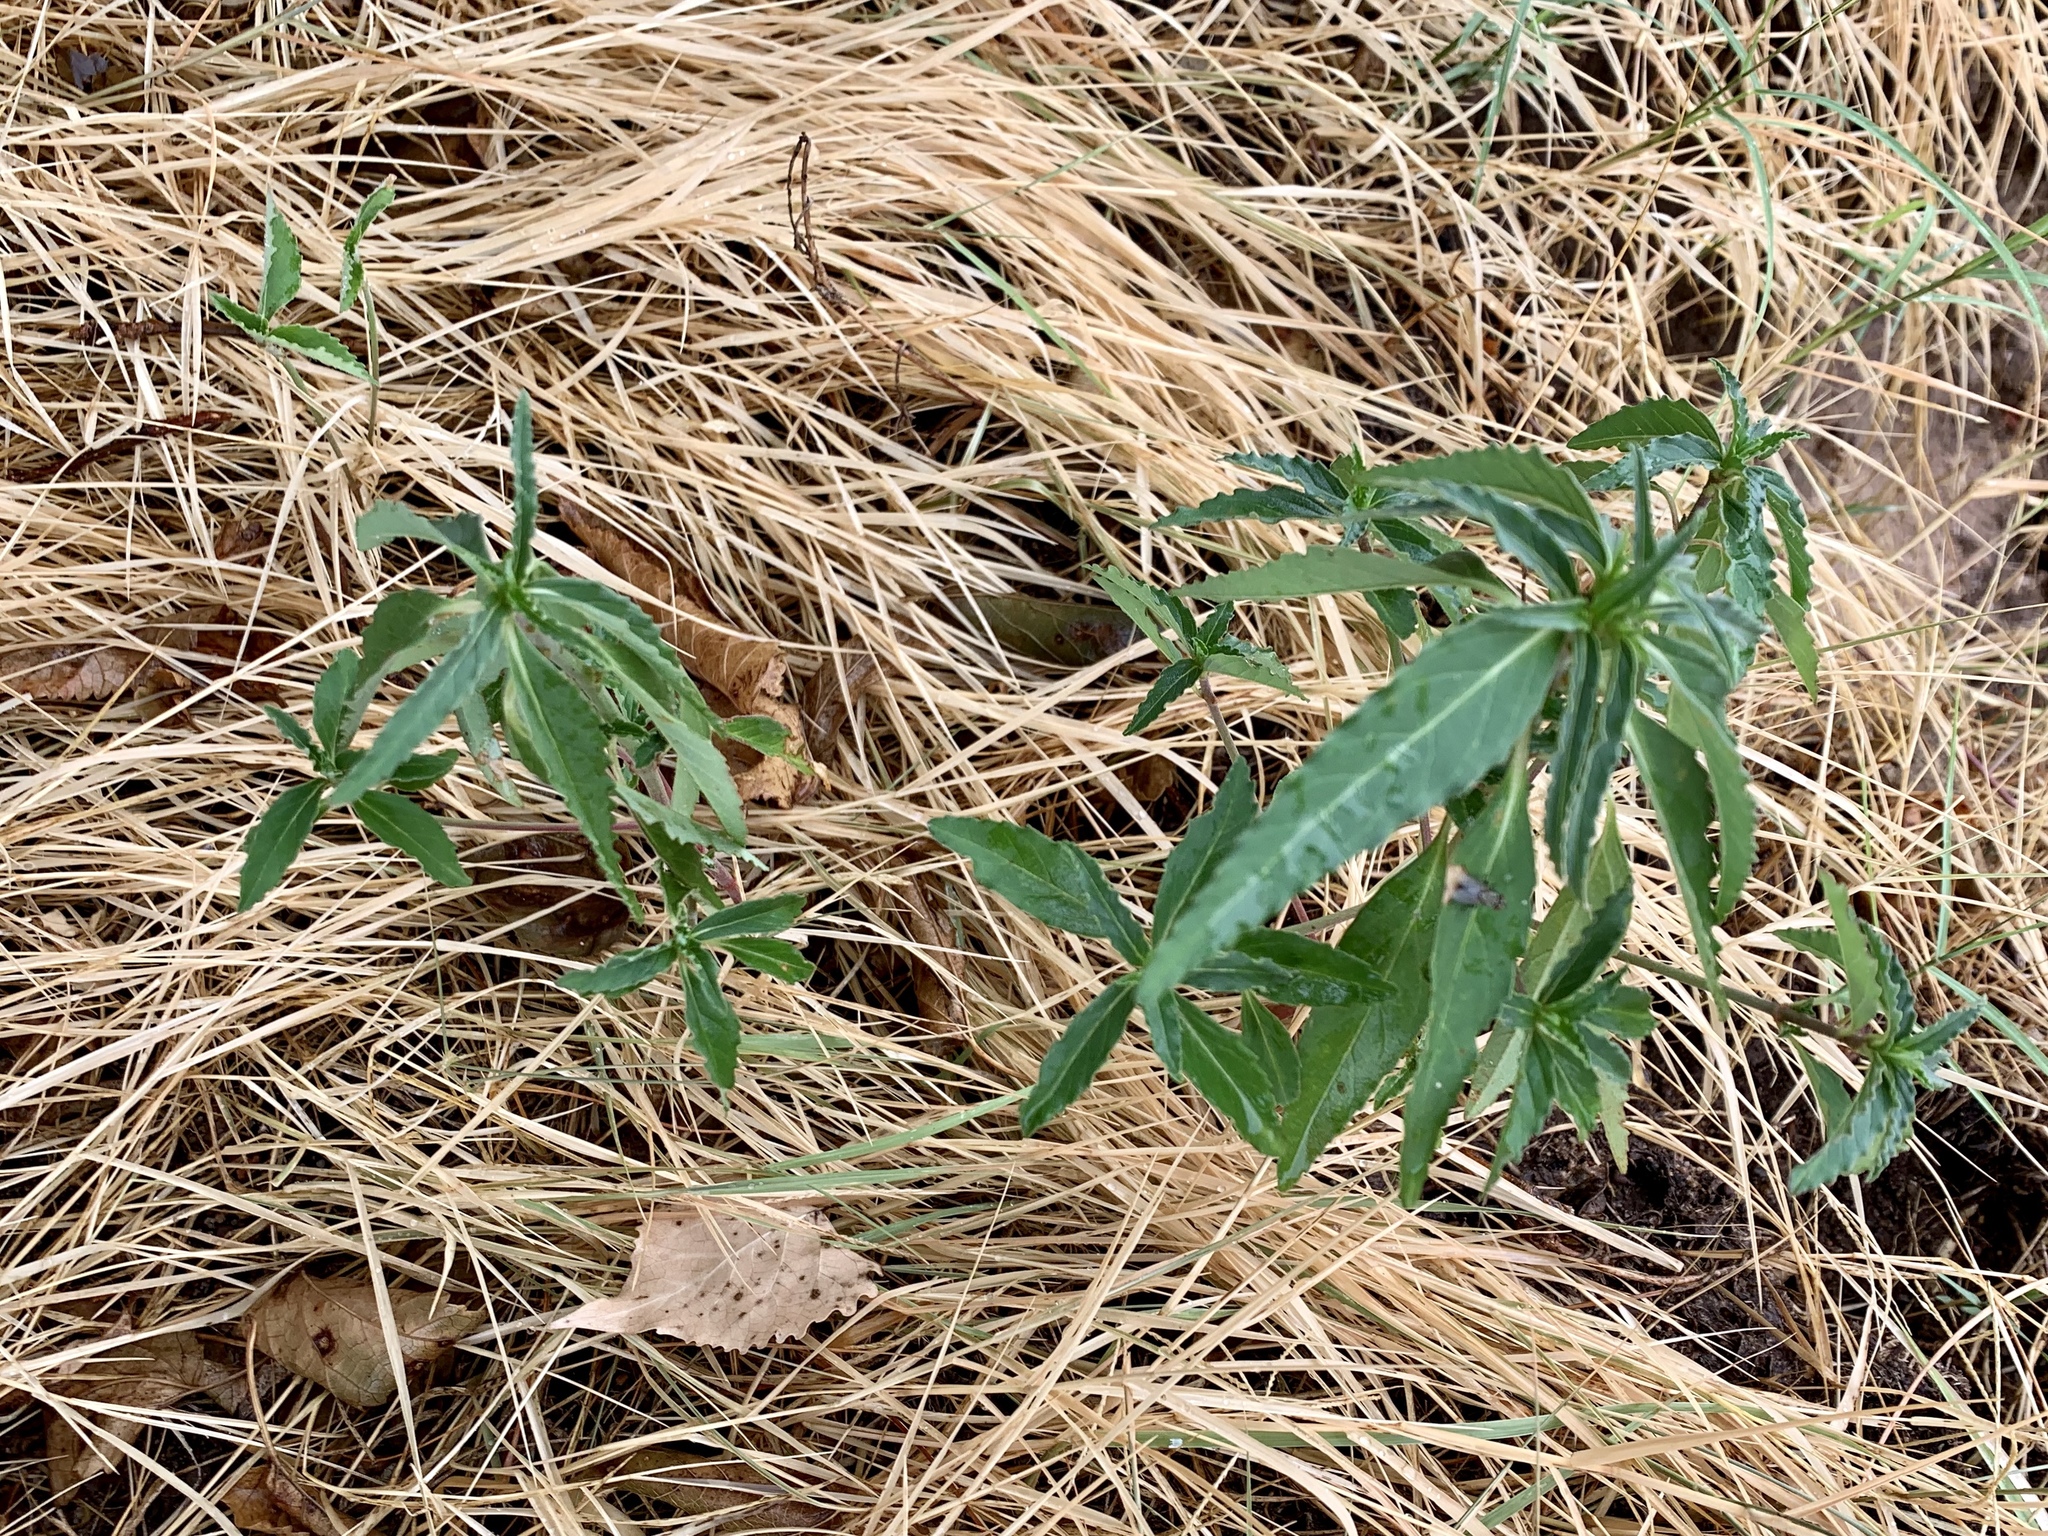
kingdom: Plantae
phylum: Tracheophyta
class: Magnoliopsida
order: Malpighiales
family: Euphorbiaceae
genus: Euphorbia
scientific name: Euphorbia
